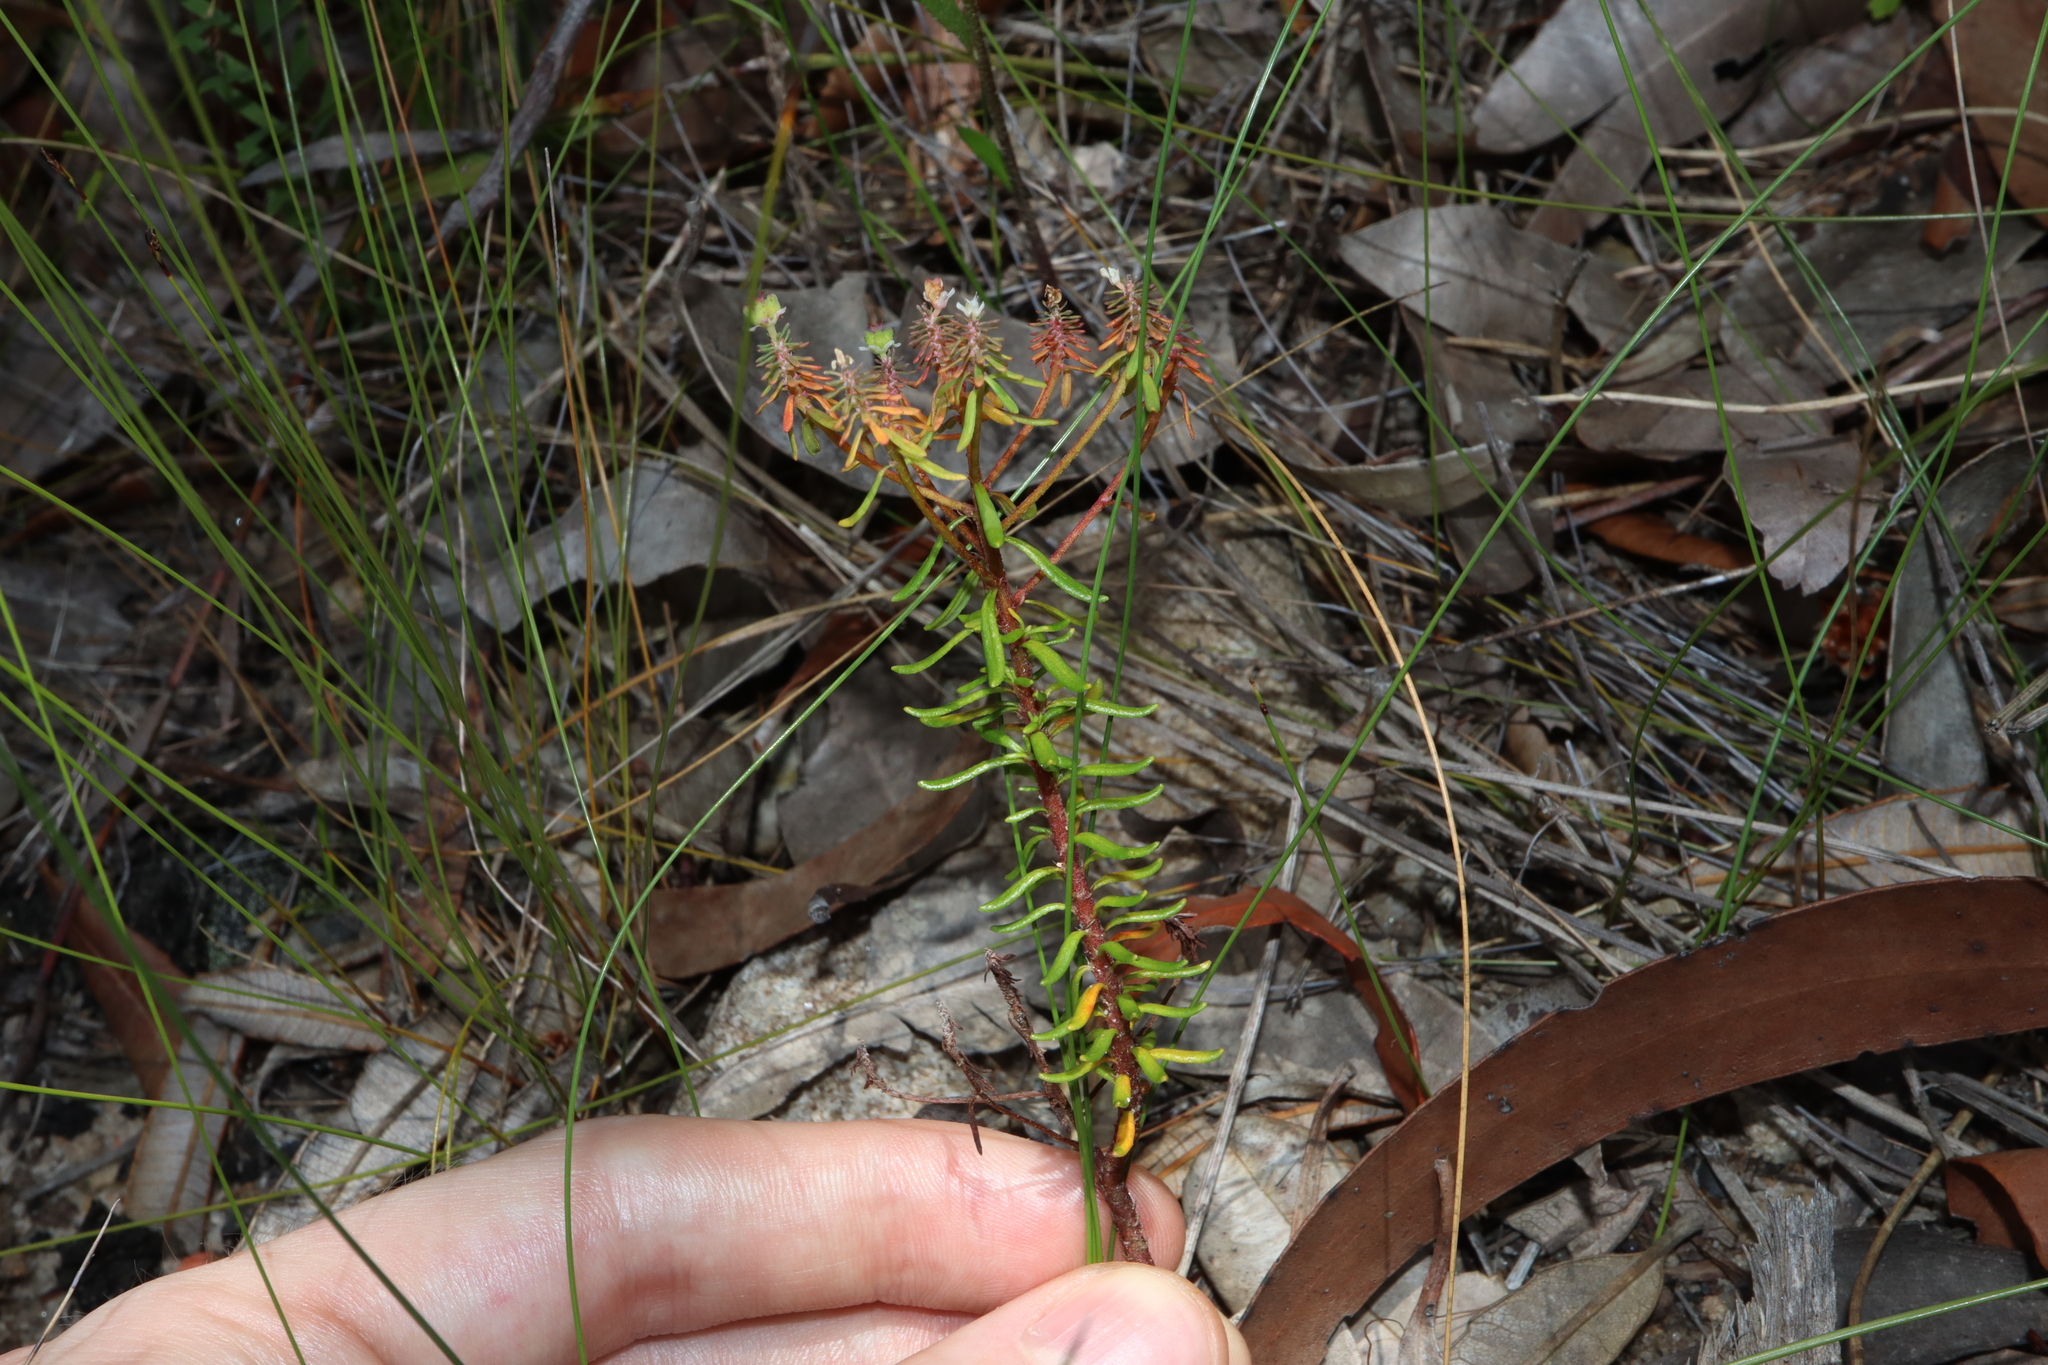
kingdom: Plantae
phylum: Tracheophyta
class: Magnoliopsida
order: Malpighiales
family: Phyllanthaceae
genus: Poranthera
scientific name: Poranthera ericifolia
